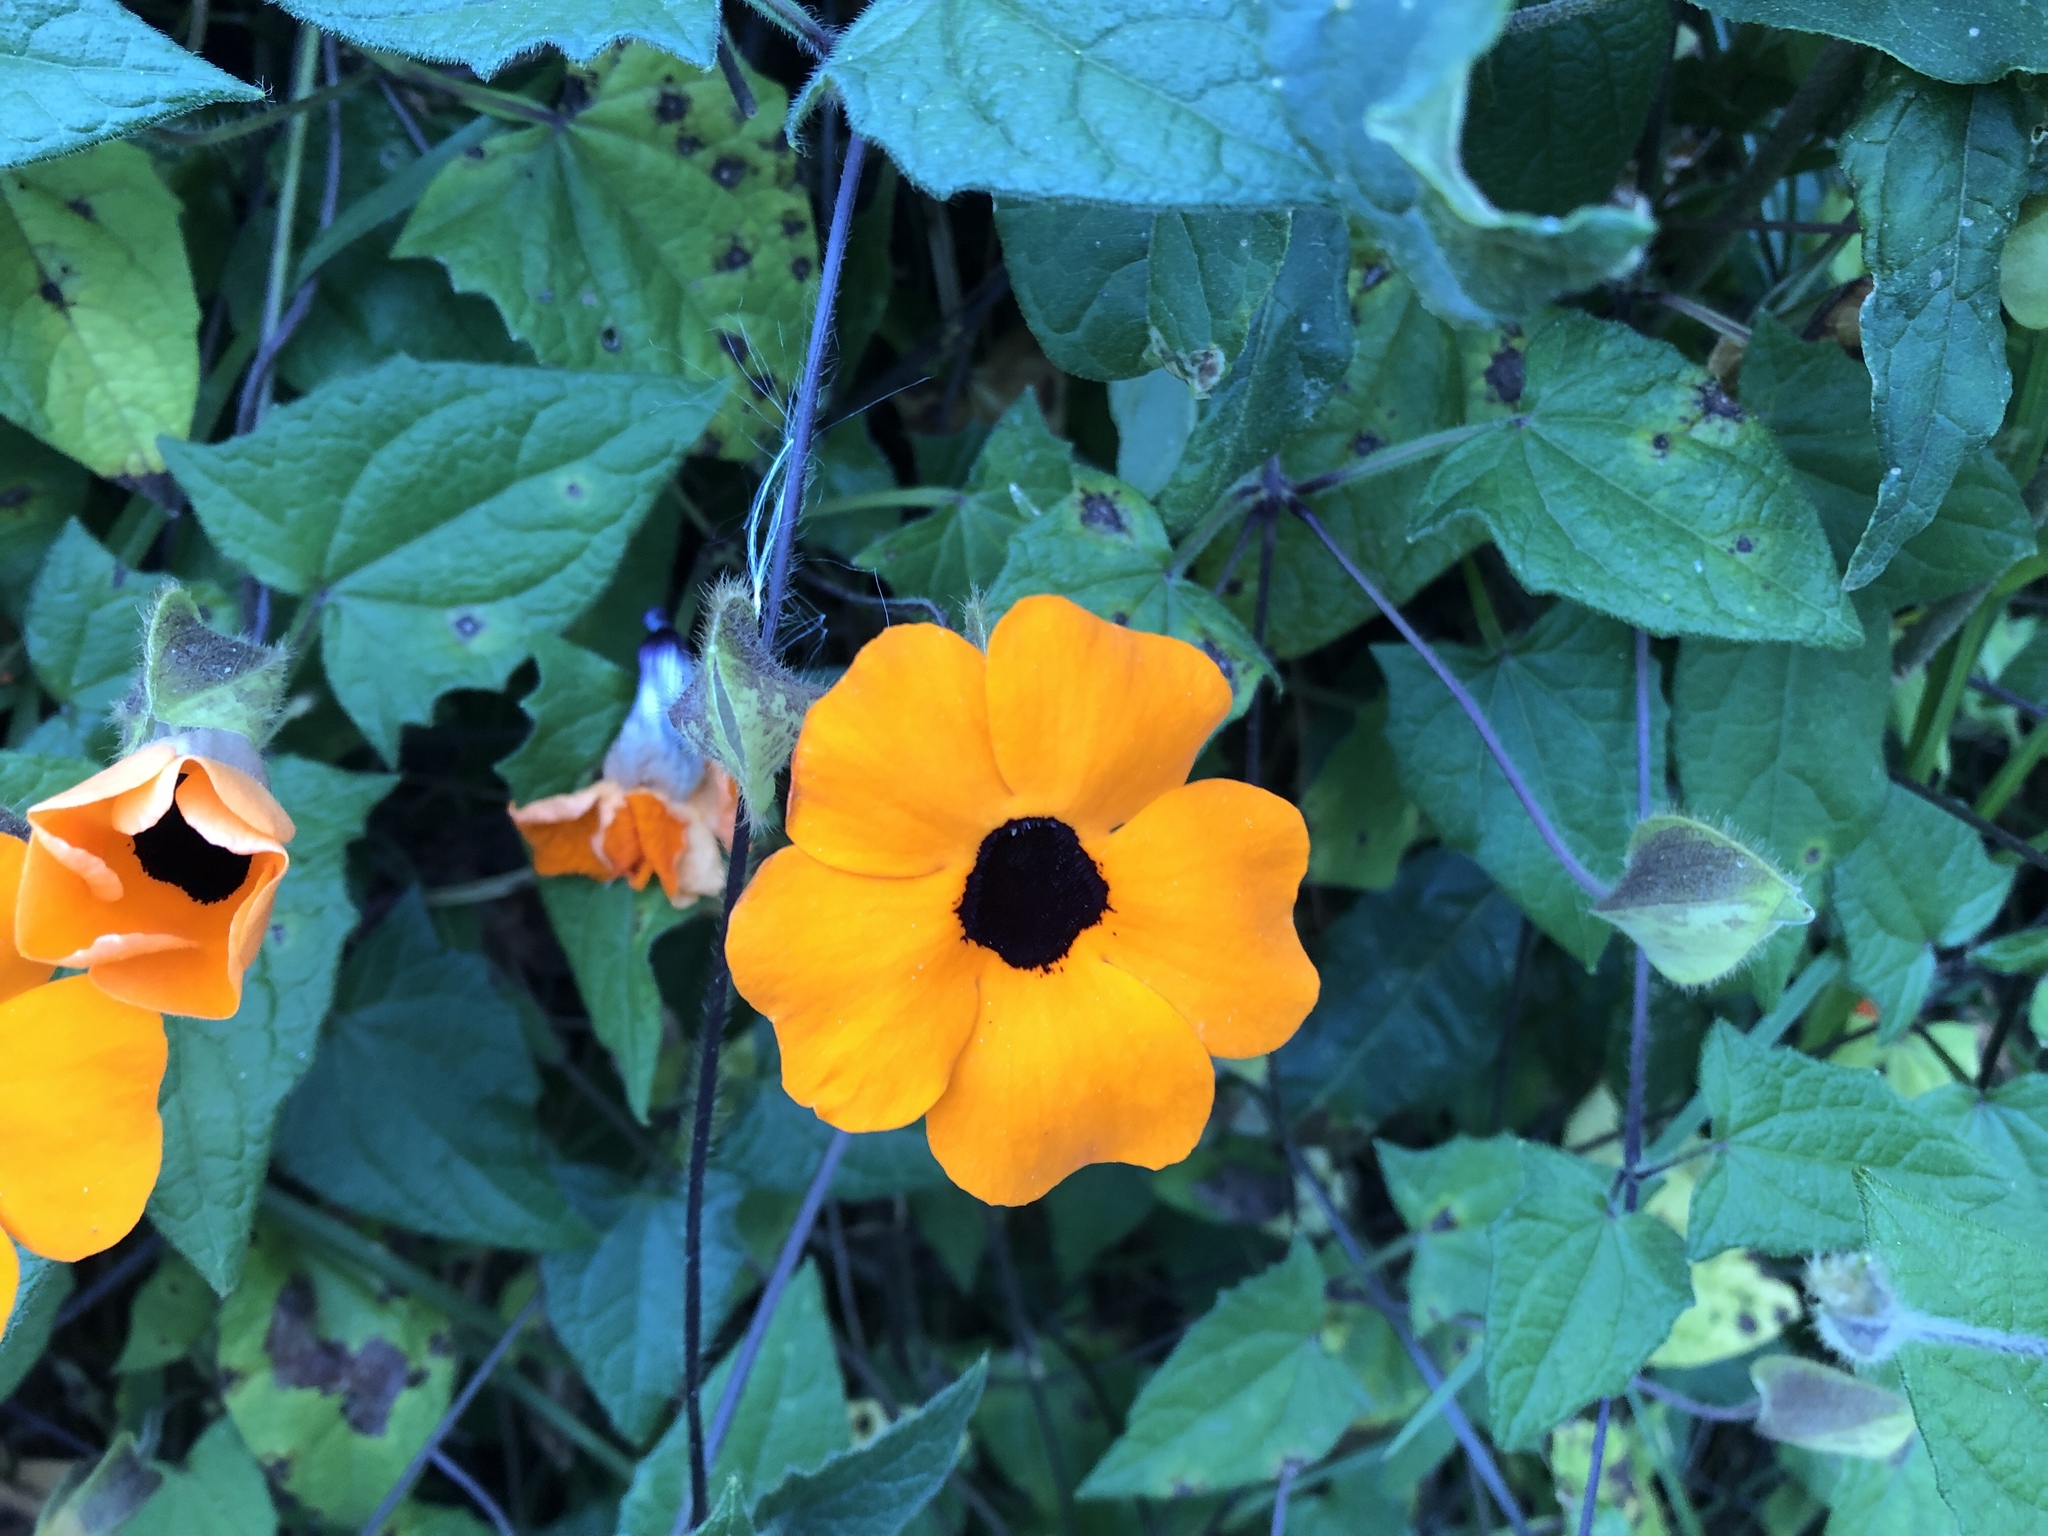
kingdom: Plantae
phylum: Tracheophyta
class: Magnoliopsida
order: Lamiales
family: Acanthaceae
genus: Thunbergia
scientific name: Thunbergia alata
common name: Blackeyed susan vine
